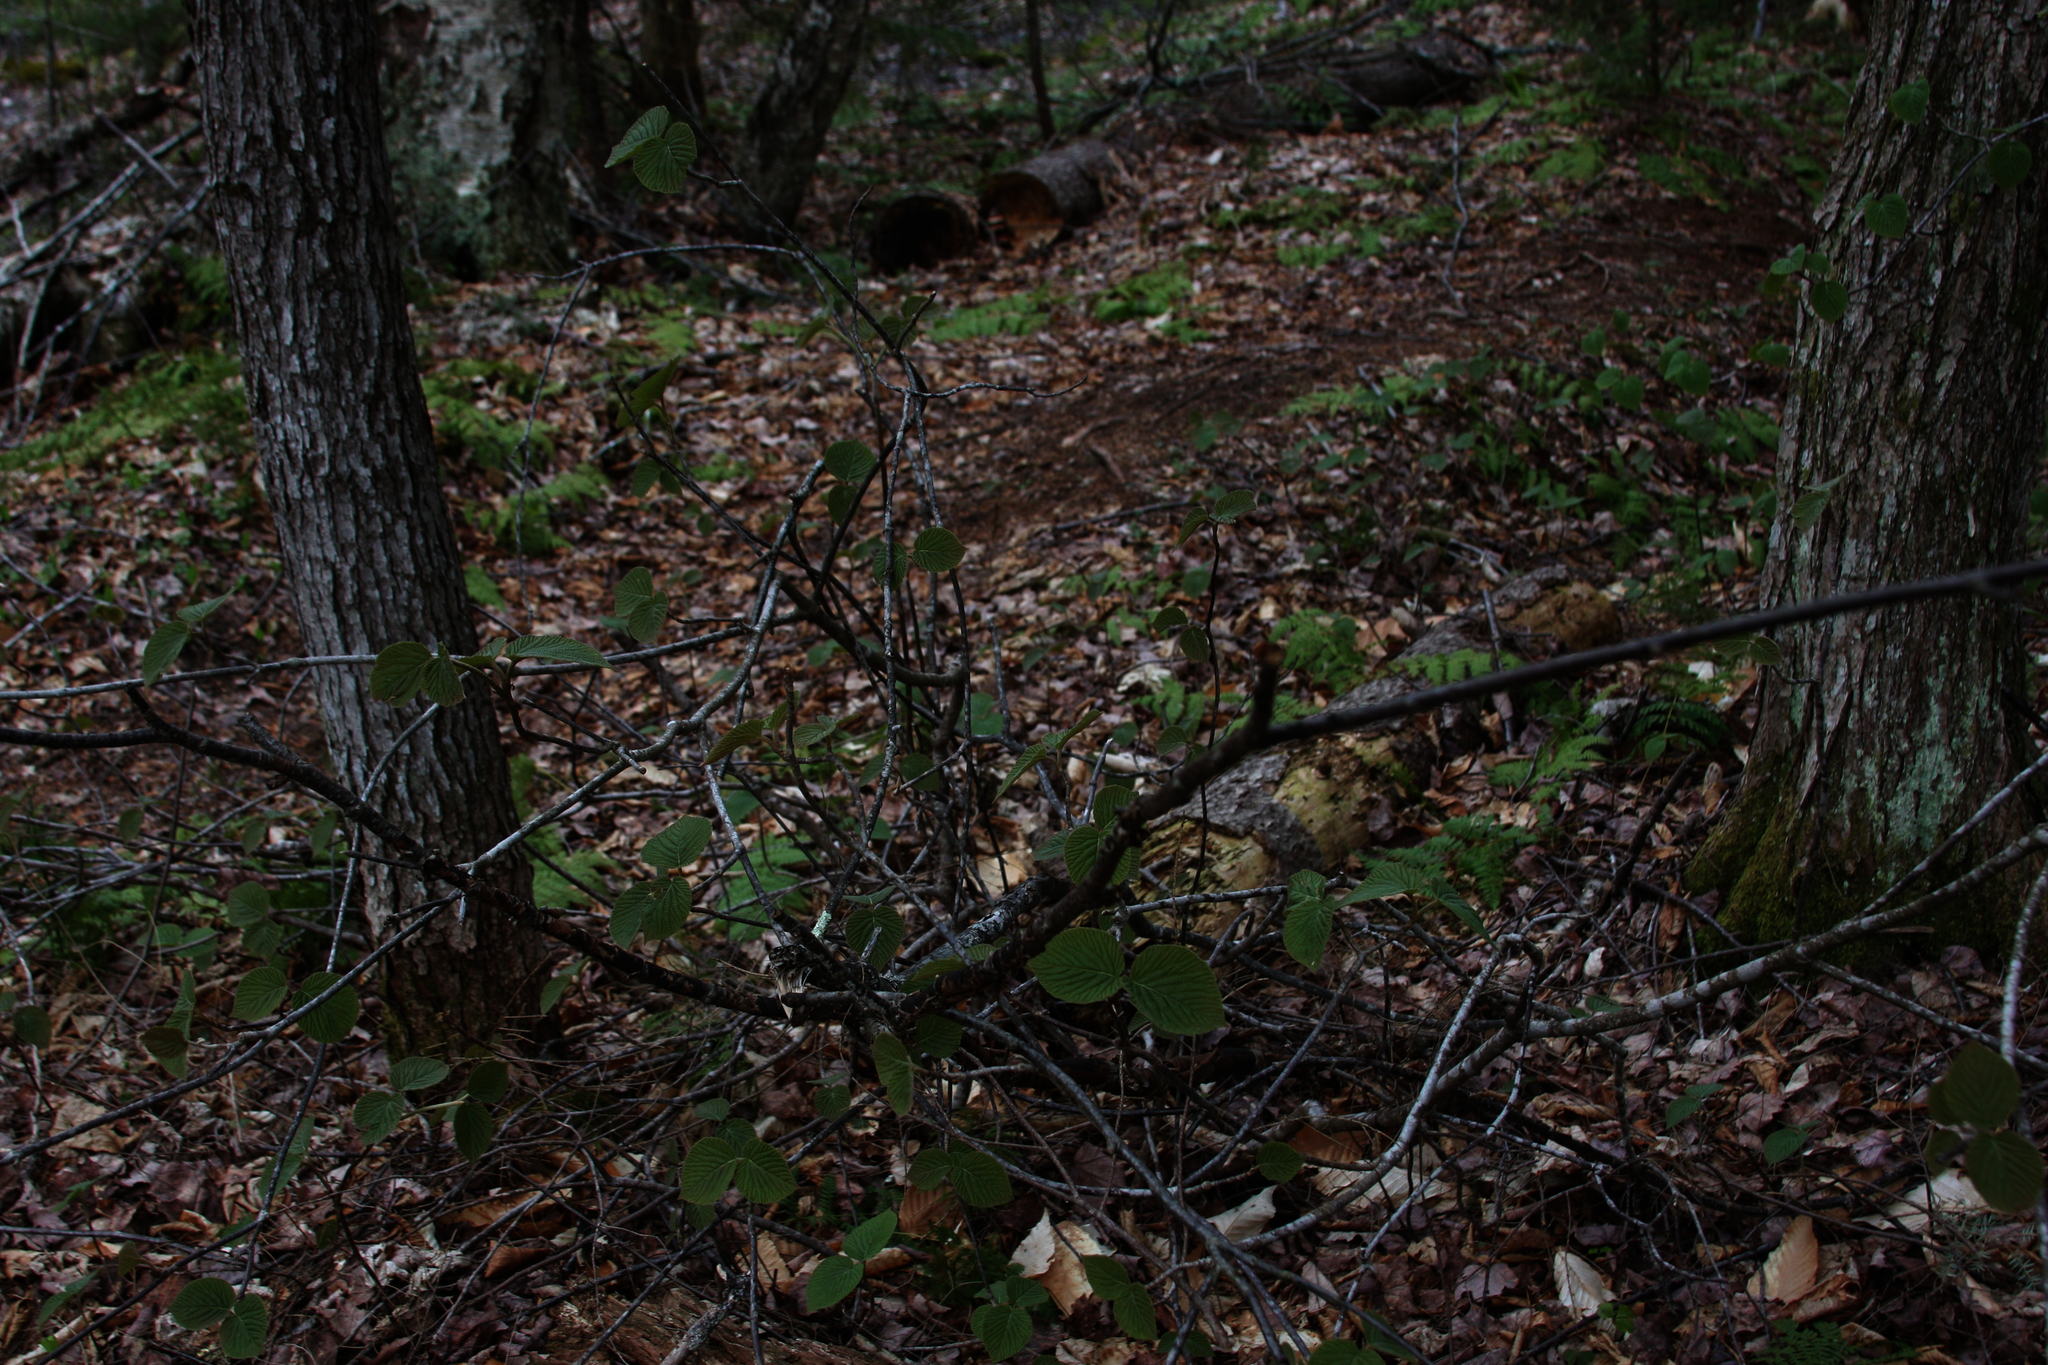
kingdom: Plantae
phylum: Tracheophyta
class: Magnoliopsida
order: Dipsacales
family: Viburnaceae
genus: Viburnum
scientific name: Viburnum lantanoides
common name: Hobblebush
